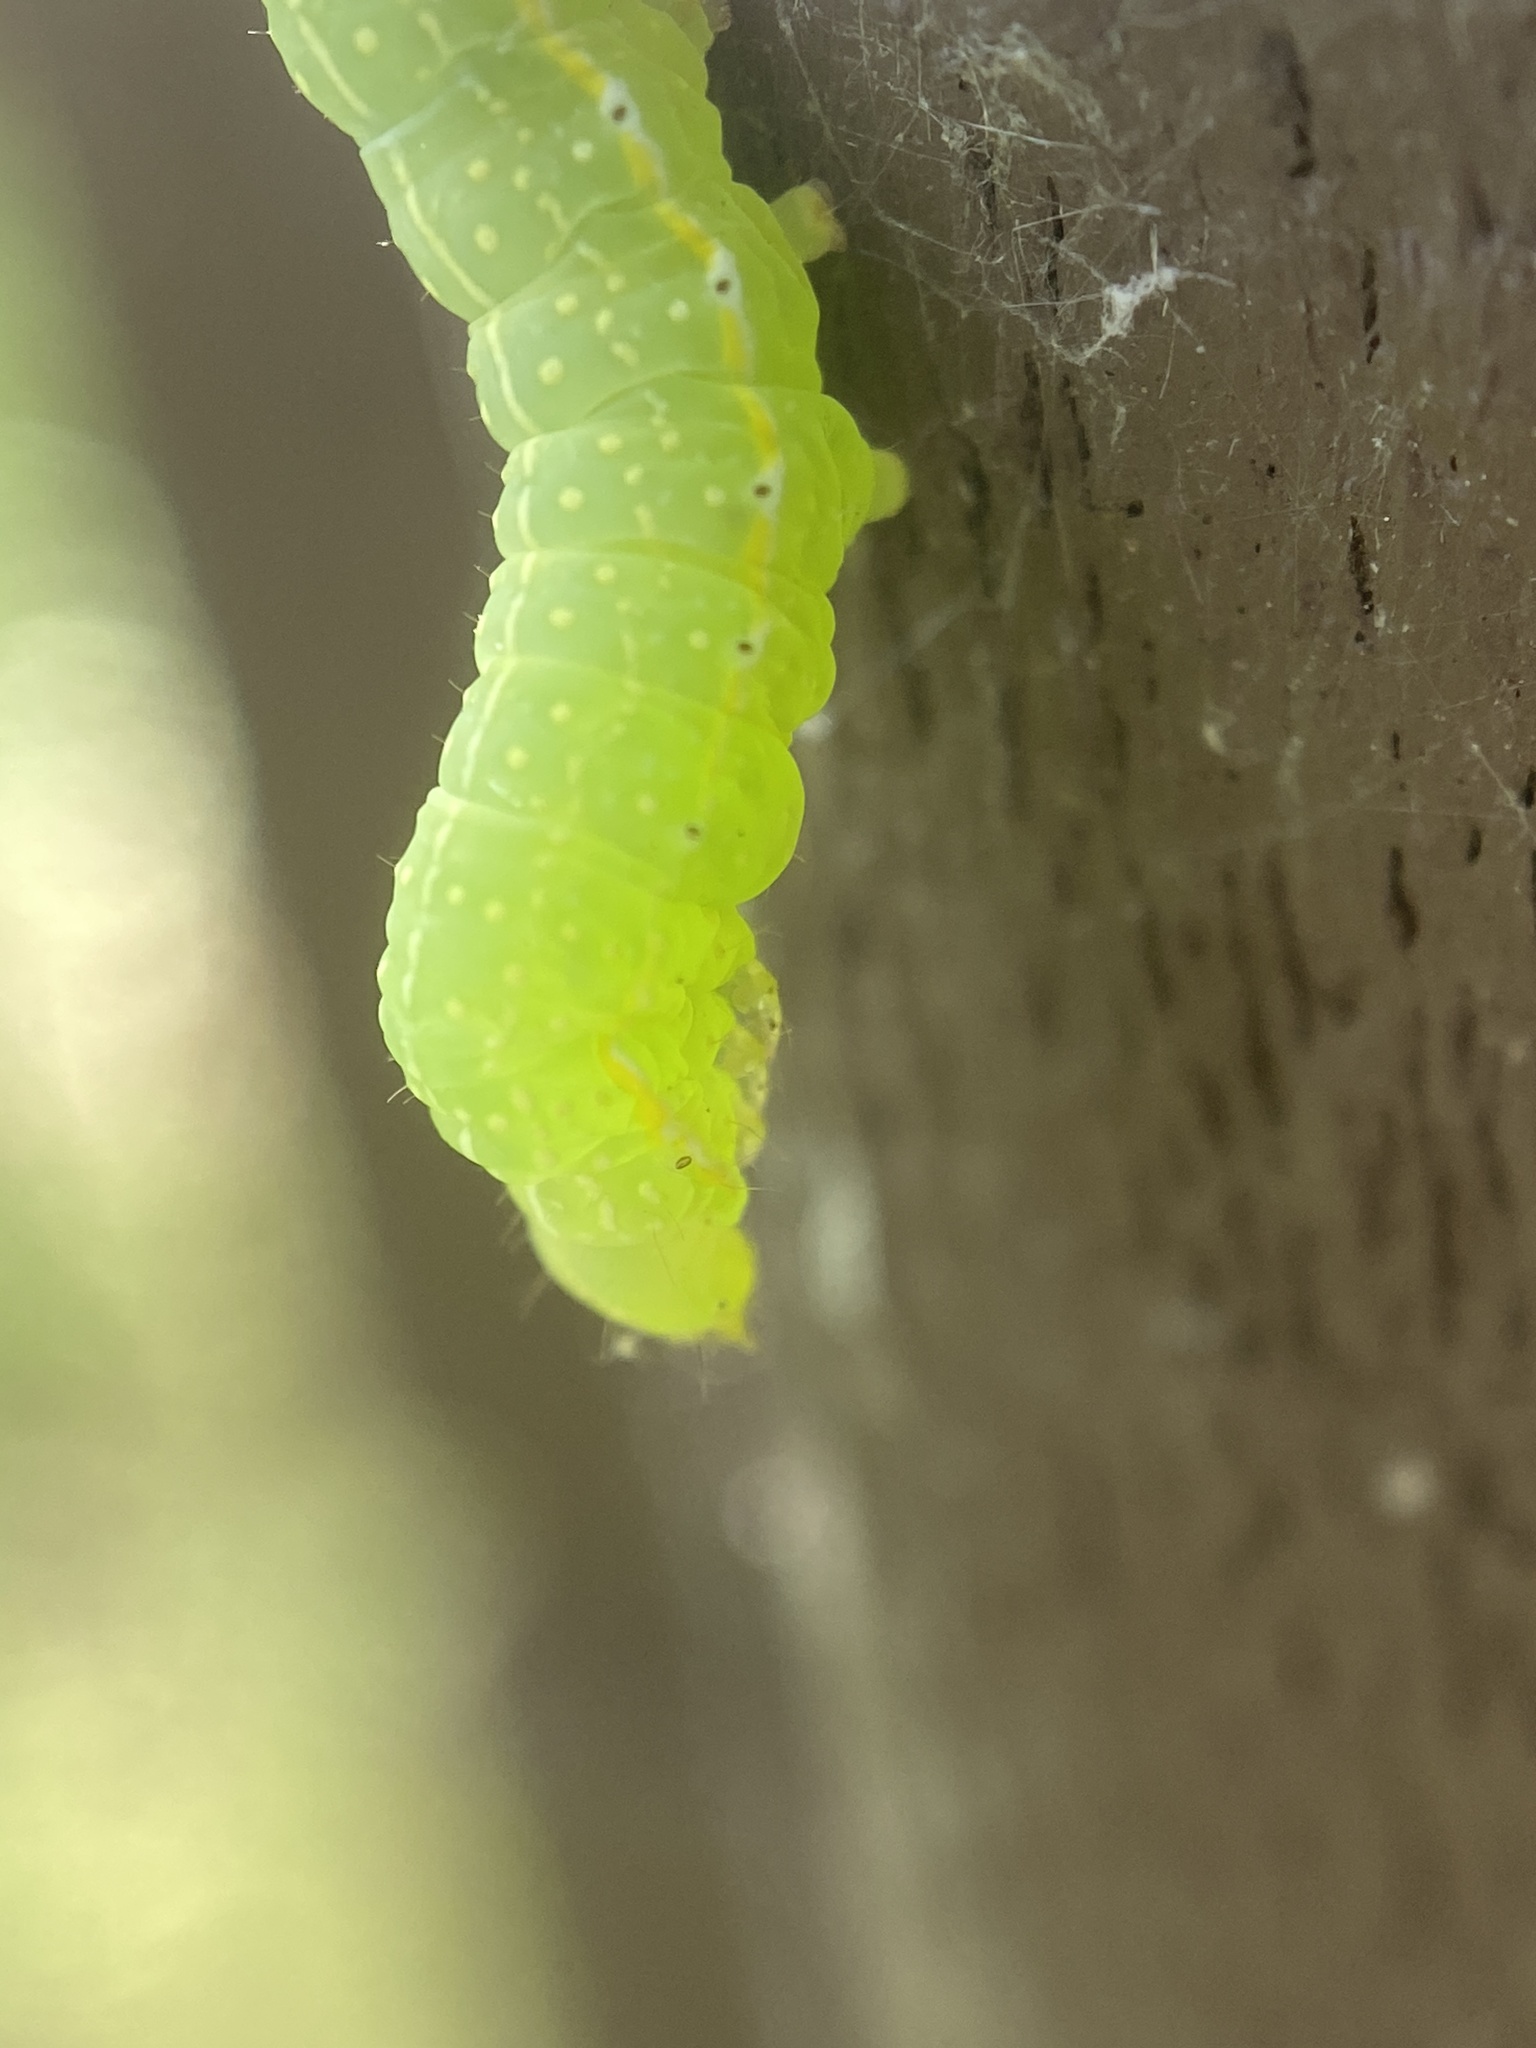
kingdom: Animalia
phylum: Arthropoda
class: Insecta
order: Lepidoptera
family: Noctuidae
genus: Amphipyra
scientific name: Amphipyra pyramidoides
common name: American copper underwing
